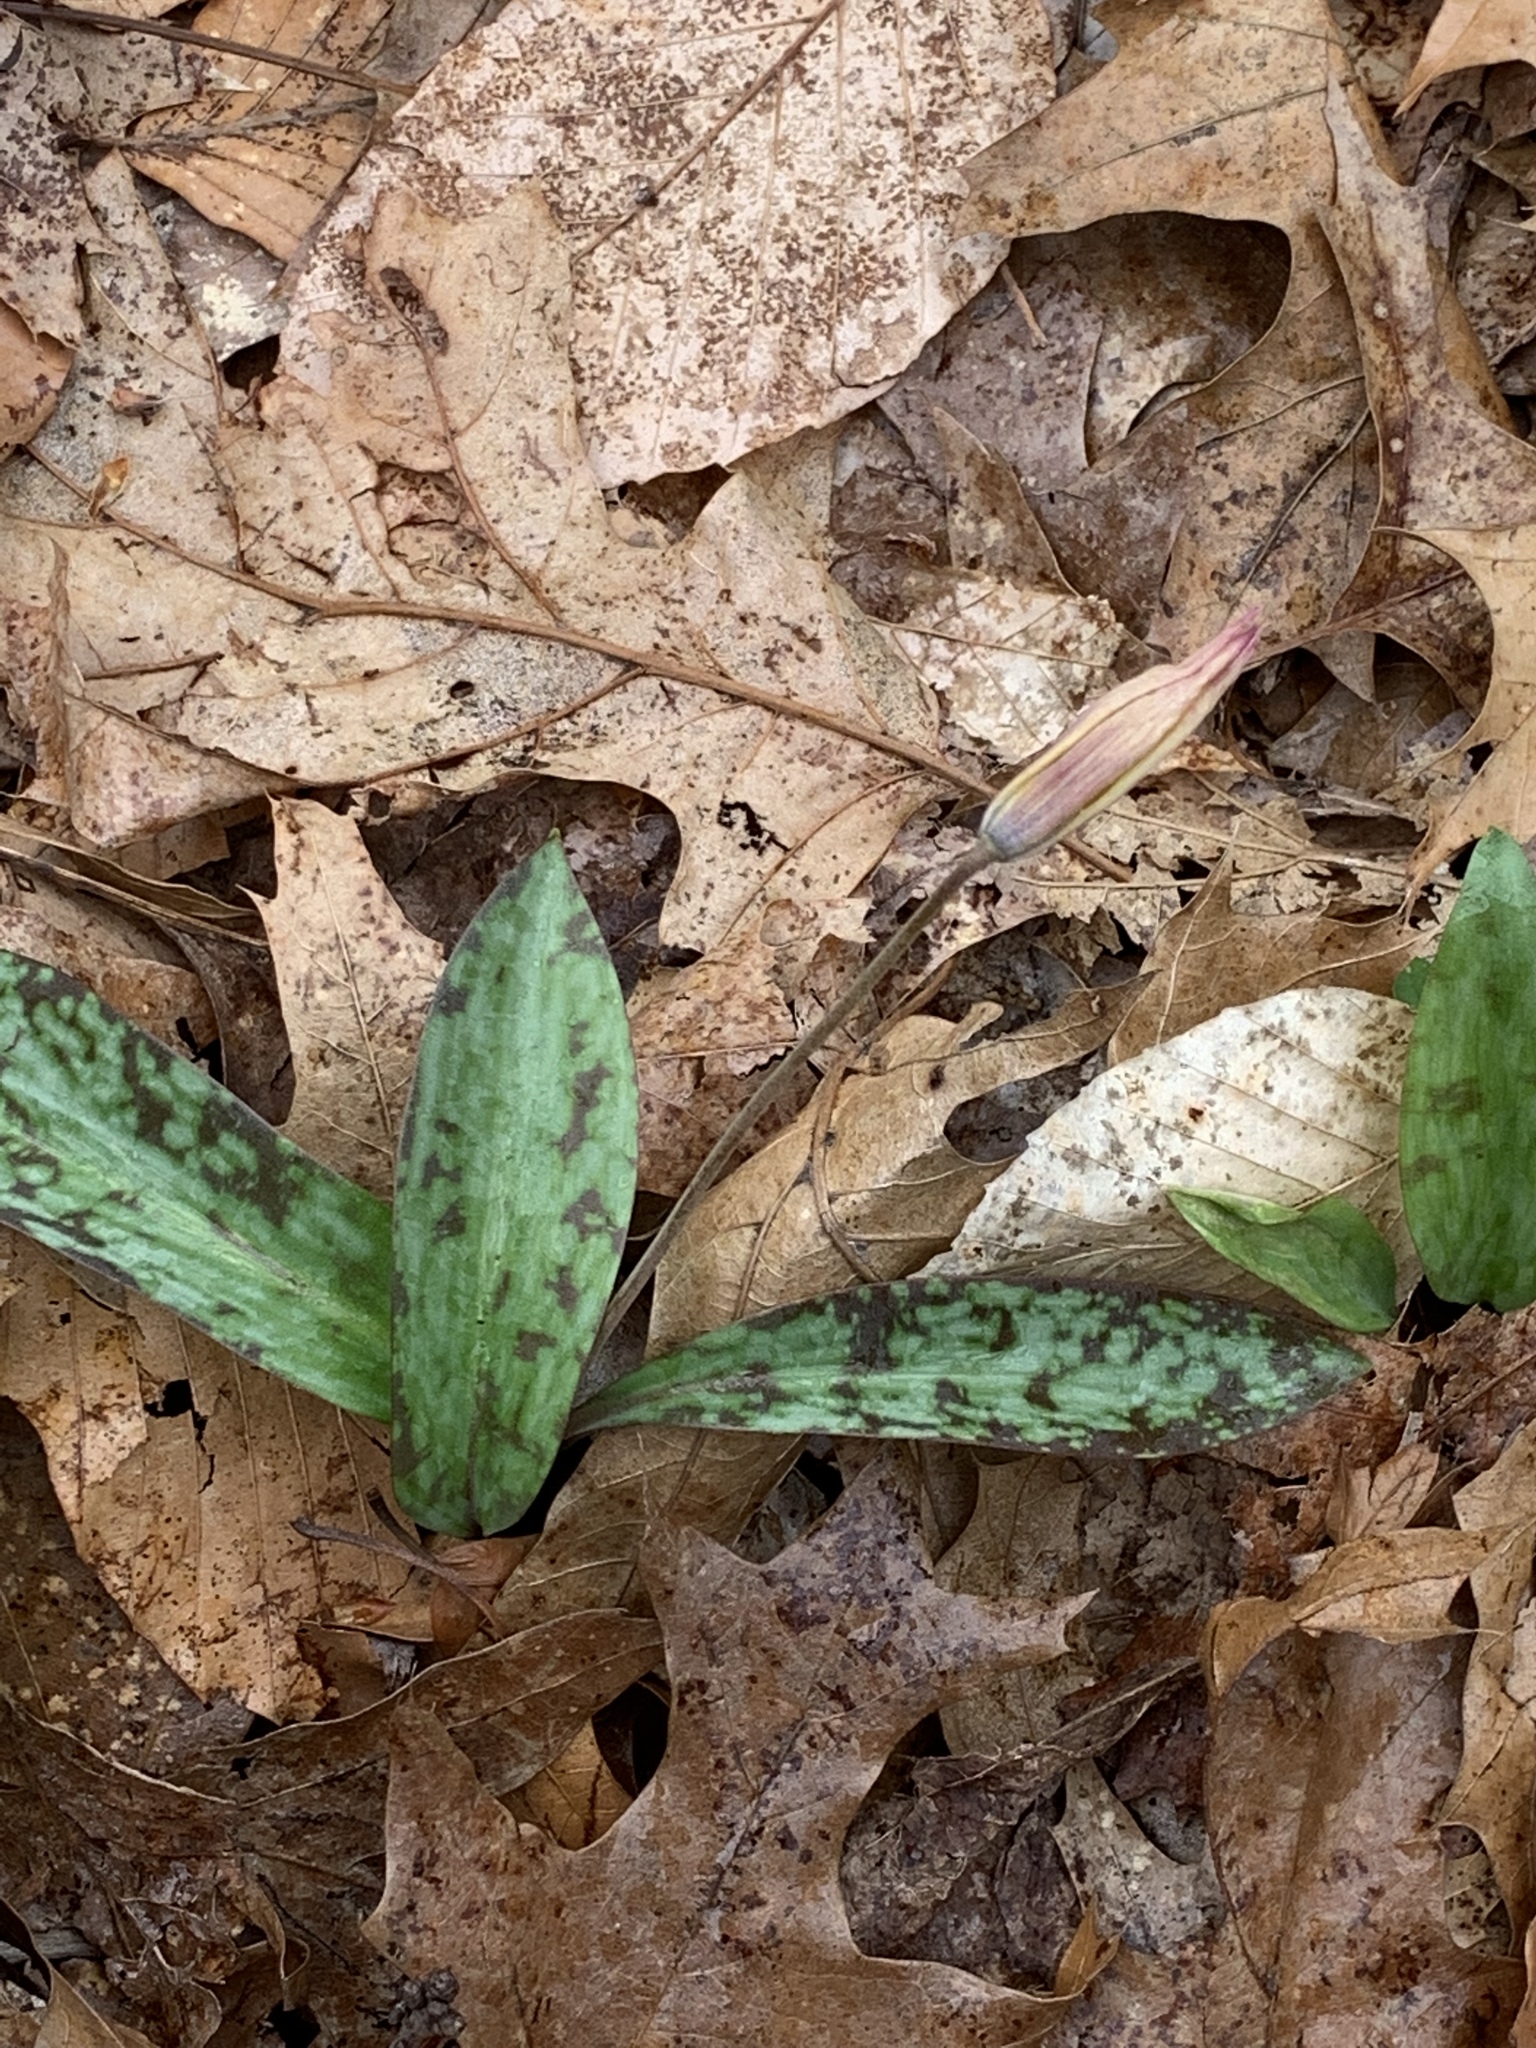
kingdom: Plantae
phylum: Tracheophyta
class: Liliopsida
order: Liliales
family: Liliaceae
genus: Erythronium
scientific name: Erythronium americanum
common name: Yellow adder's-tongue
